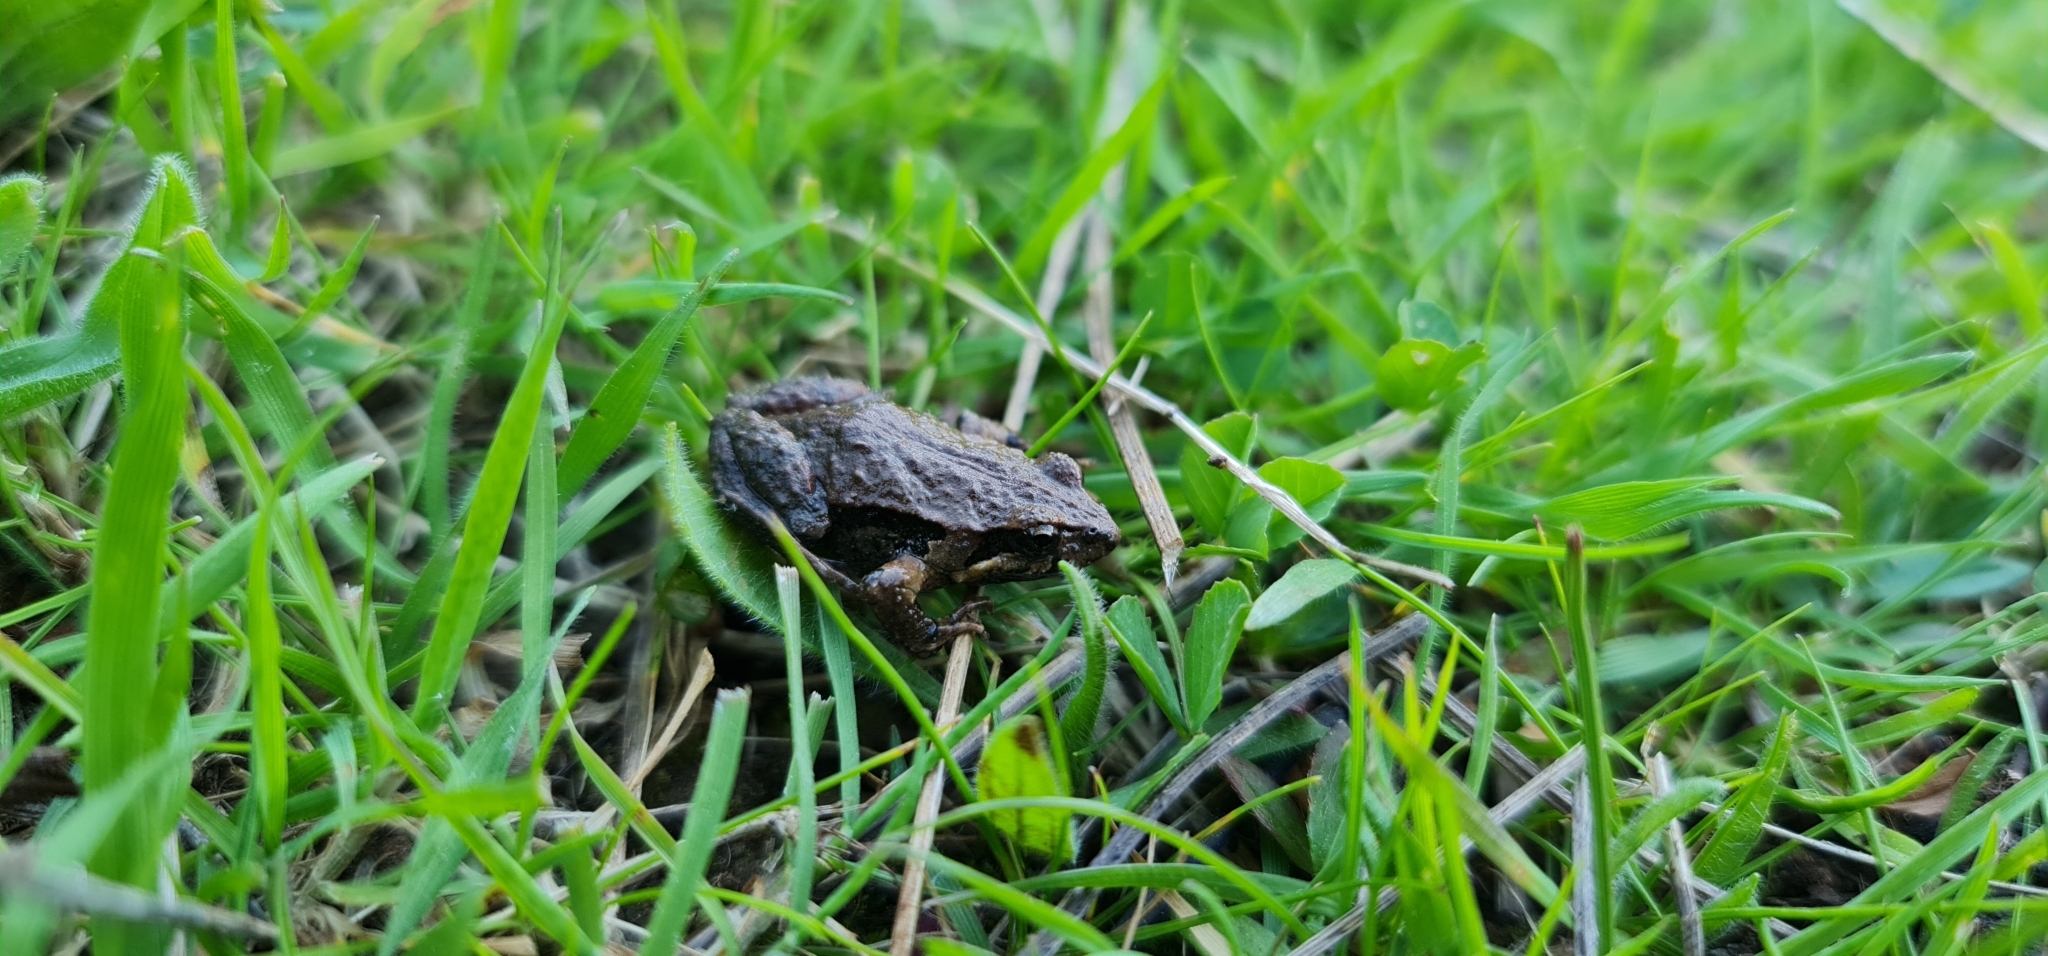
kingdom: Animalia
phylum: Chordata
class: Amphibia
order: Anura
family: Myobatrachidae
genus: Crinia
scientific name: Crinia signifera
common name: Brown froglet
